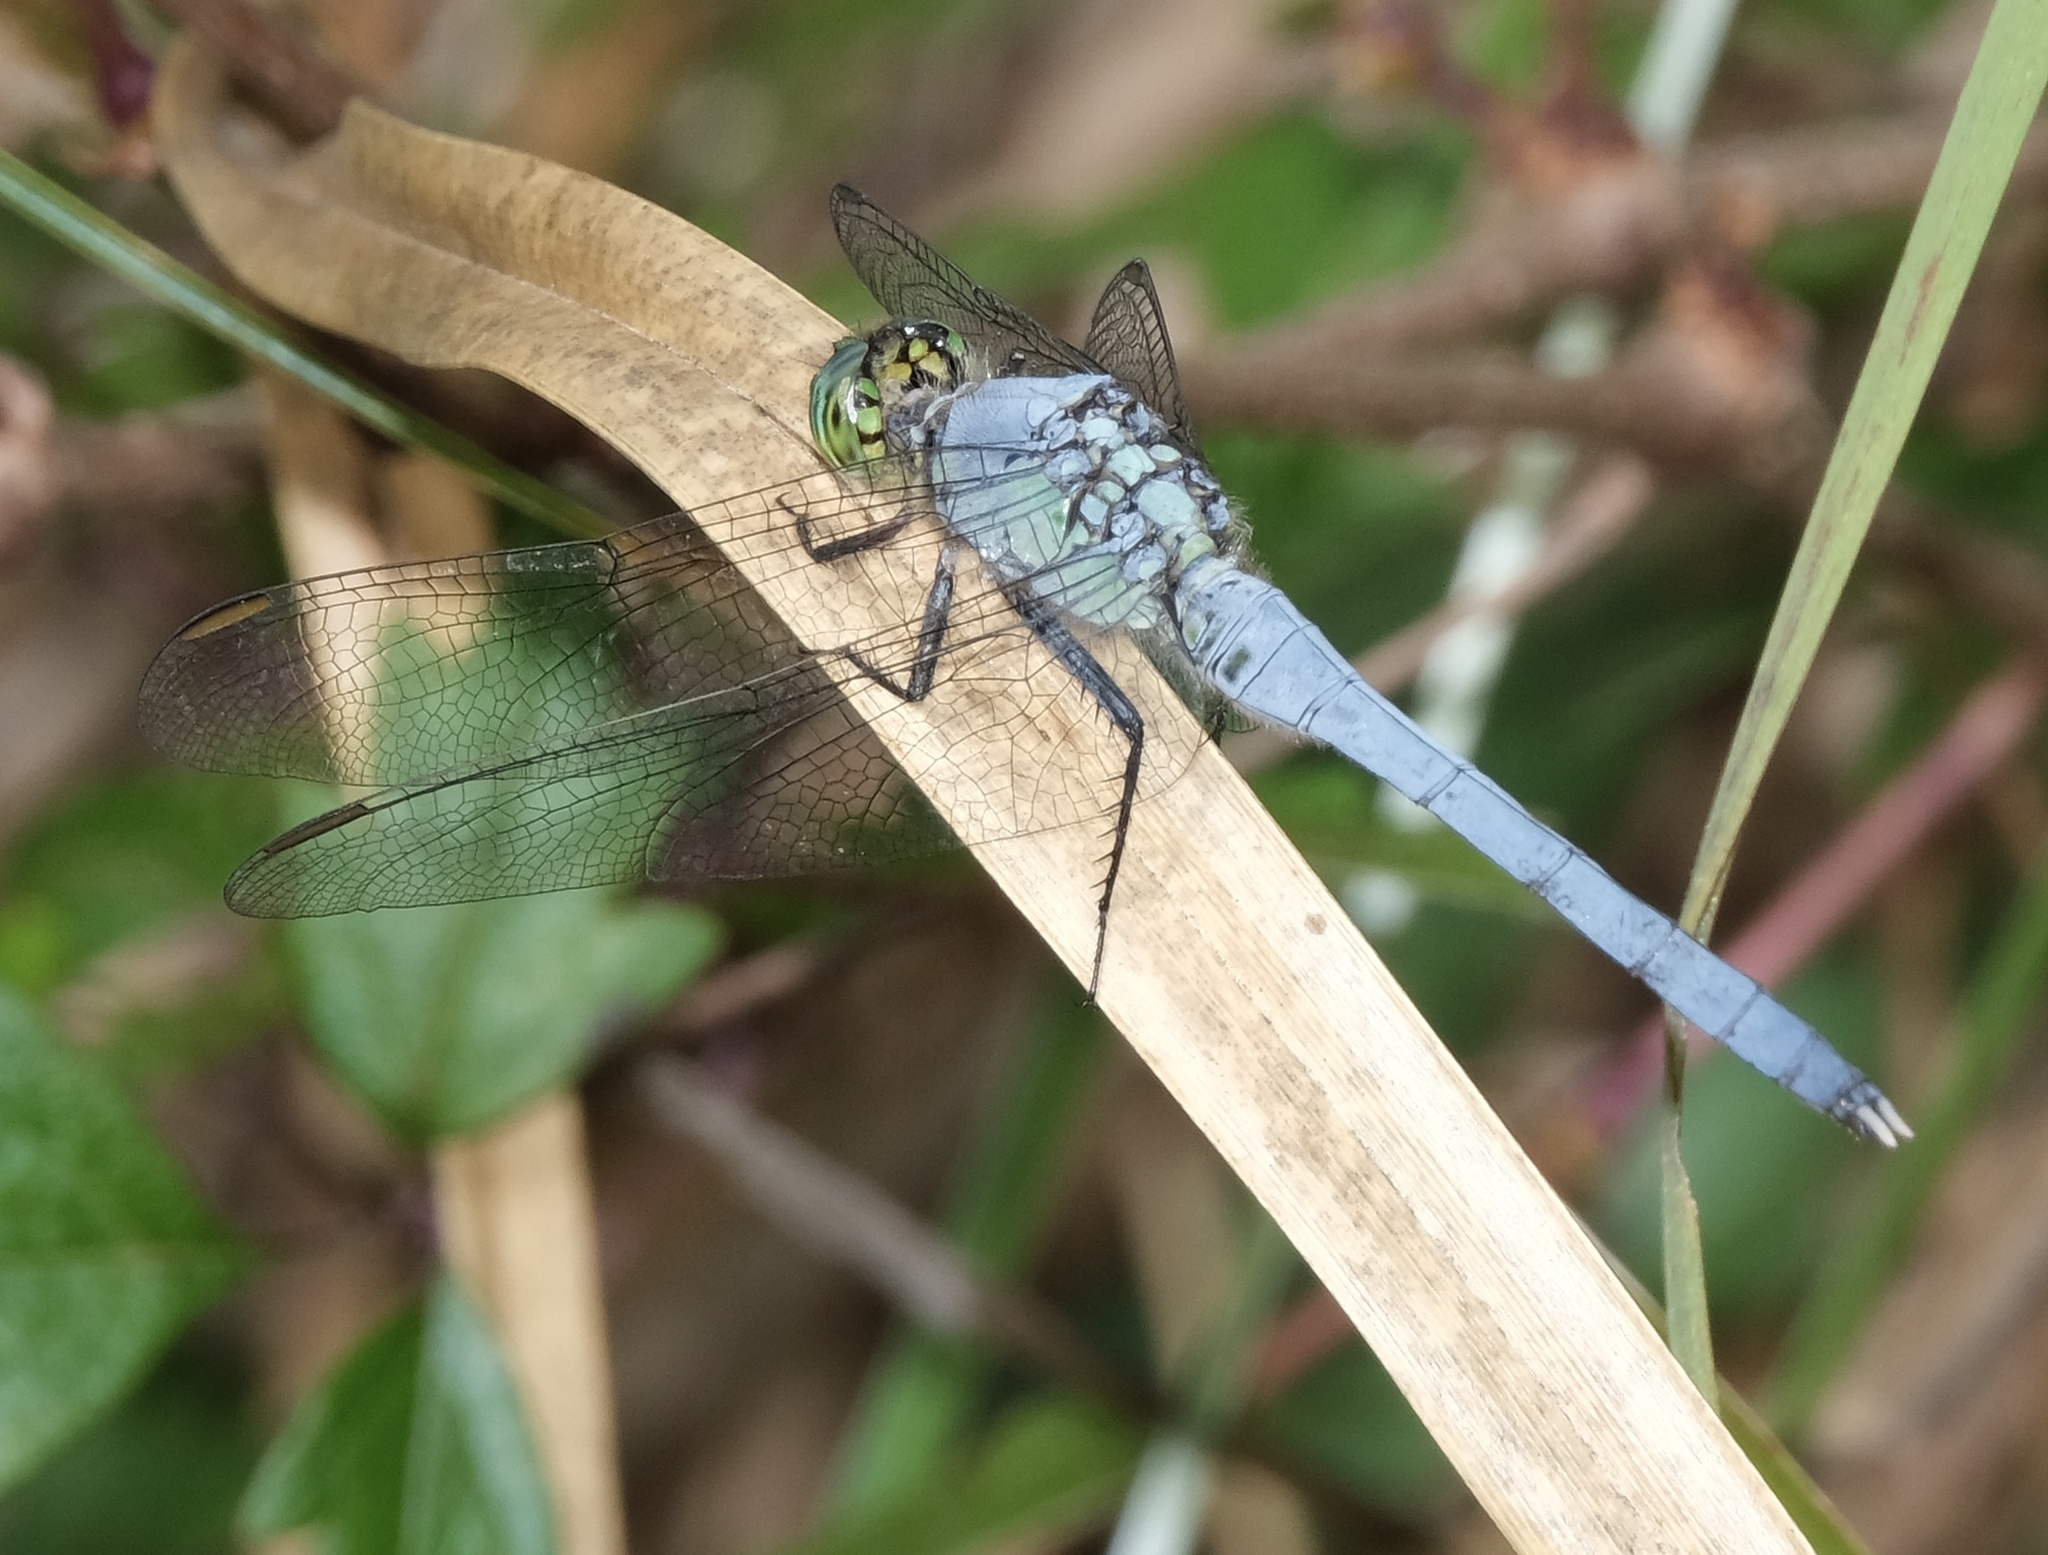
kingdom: Animalia
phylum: Arthropoda
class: Insecta
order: Odonata
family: Libellulidae
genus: Erythemis
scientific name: Erythemis simplicicollis
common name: Eastern pondhawk
